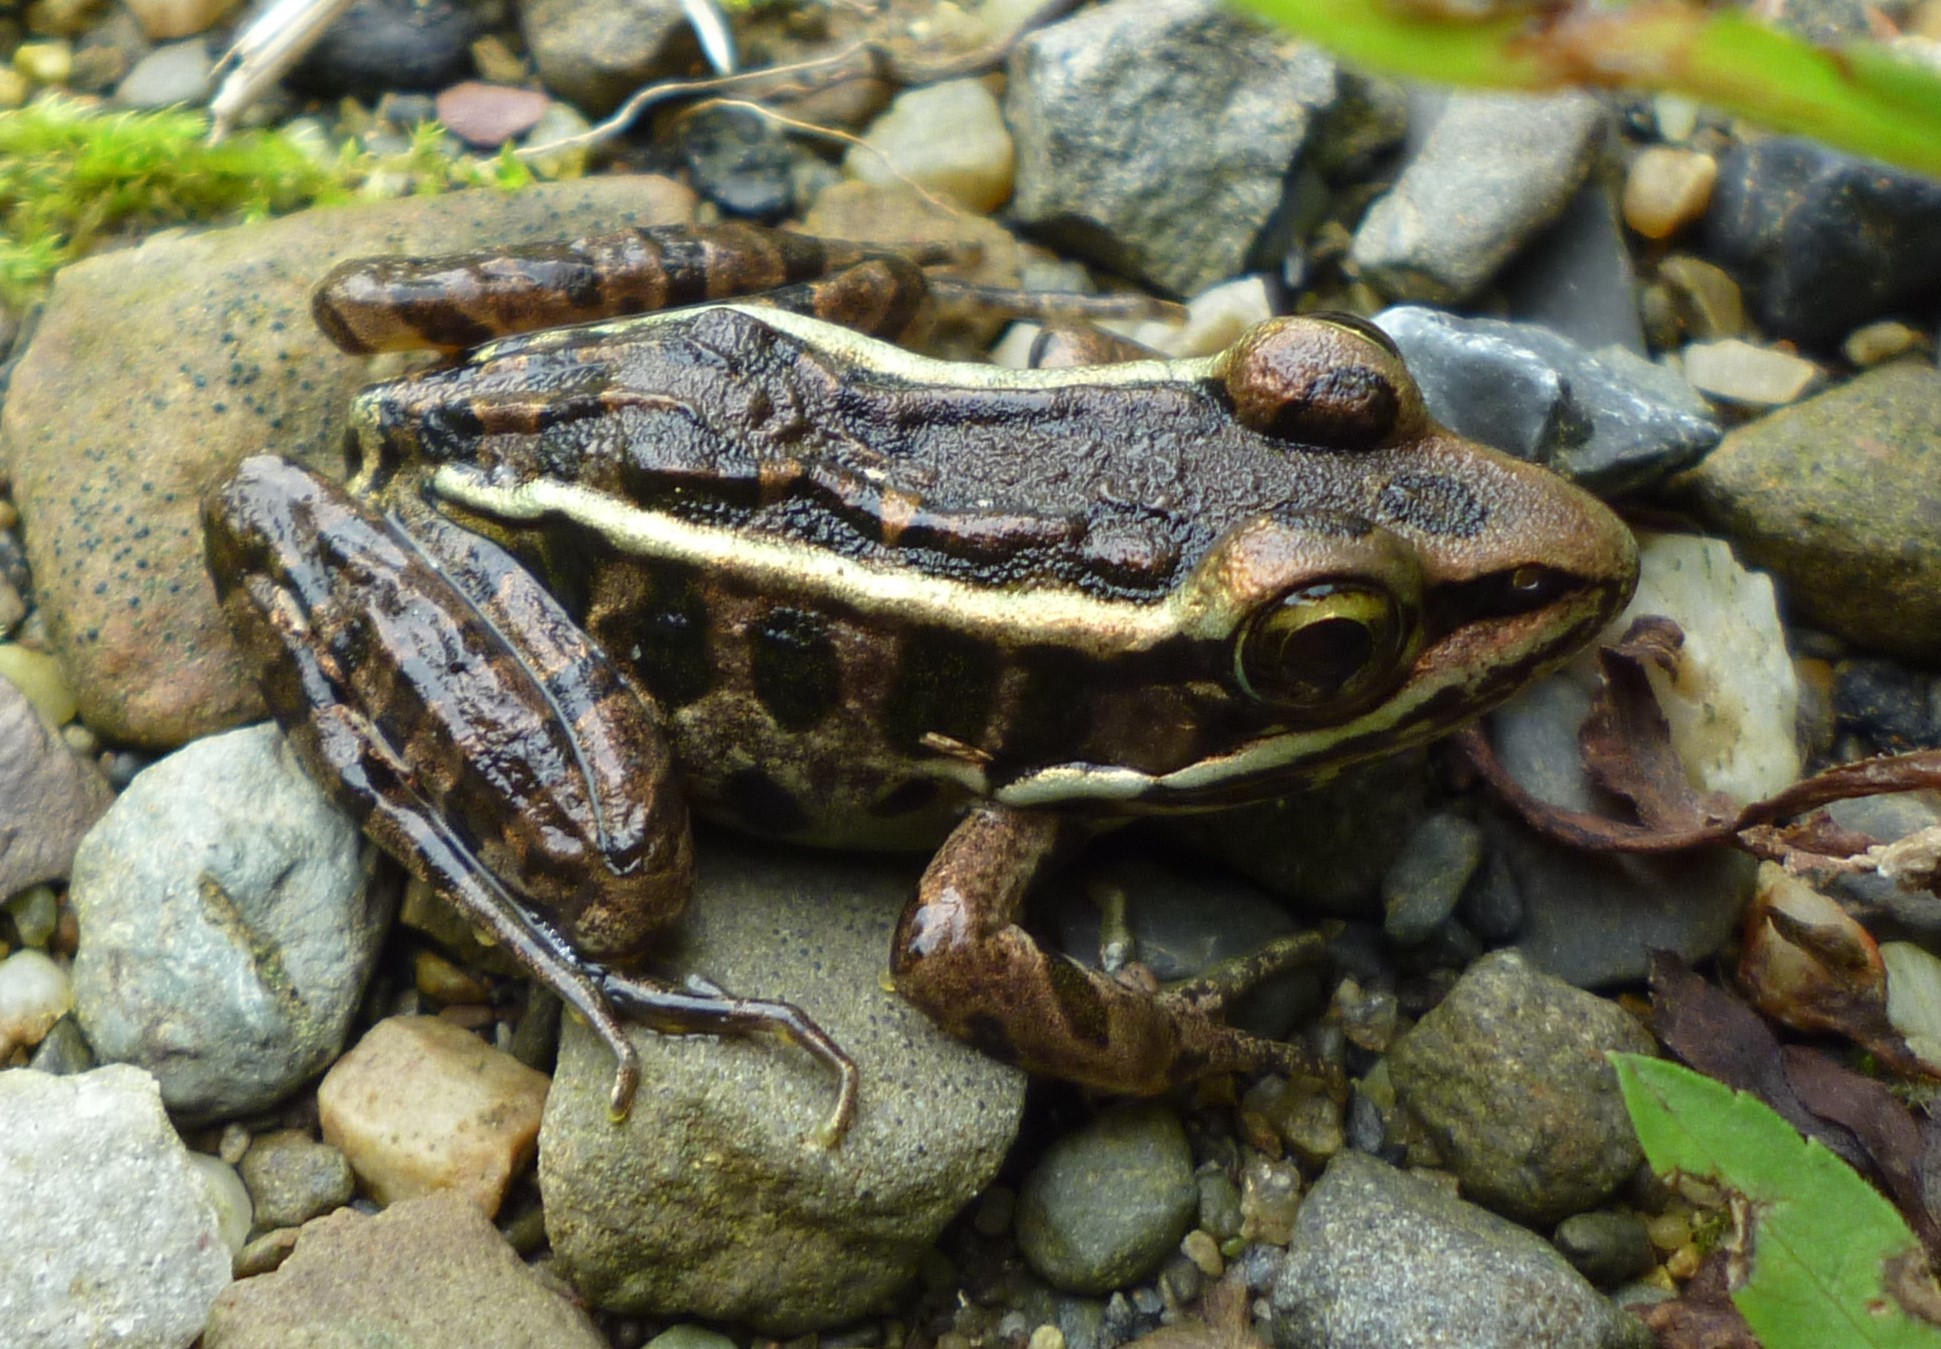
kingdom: Animalia
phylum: Chordata
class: Amphibia
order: Anura
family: Ranidae
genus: Lithobates
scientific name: Lithobates palustris
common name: Pickerel frog
